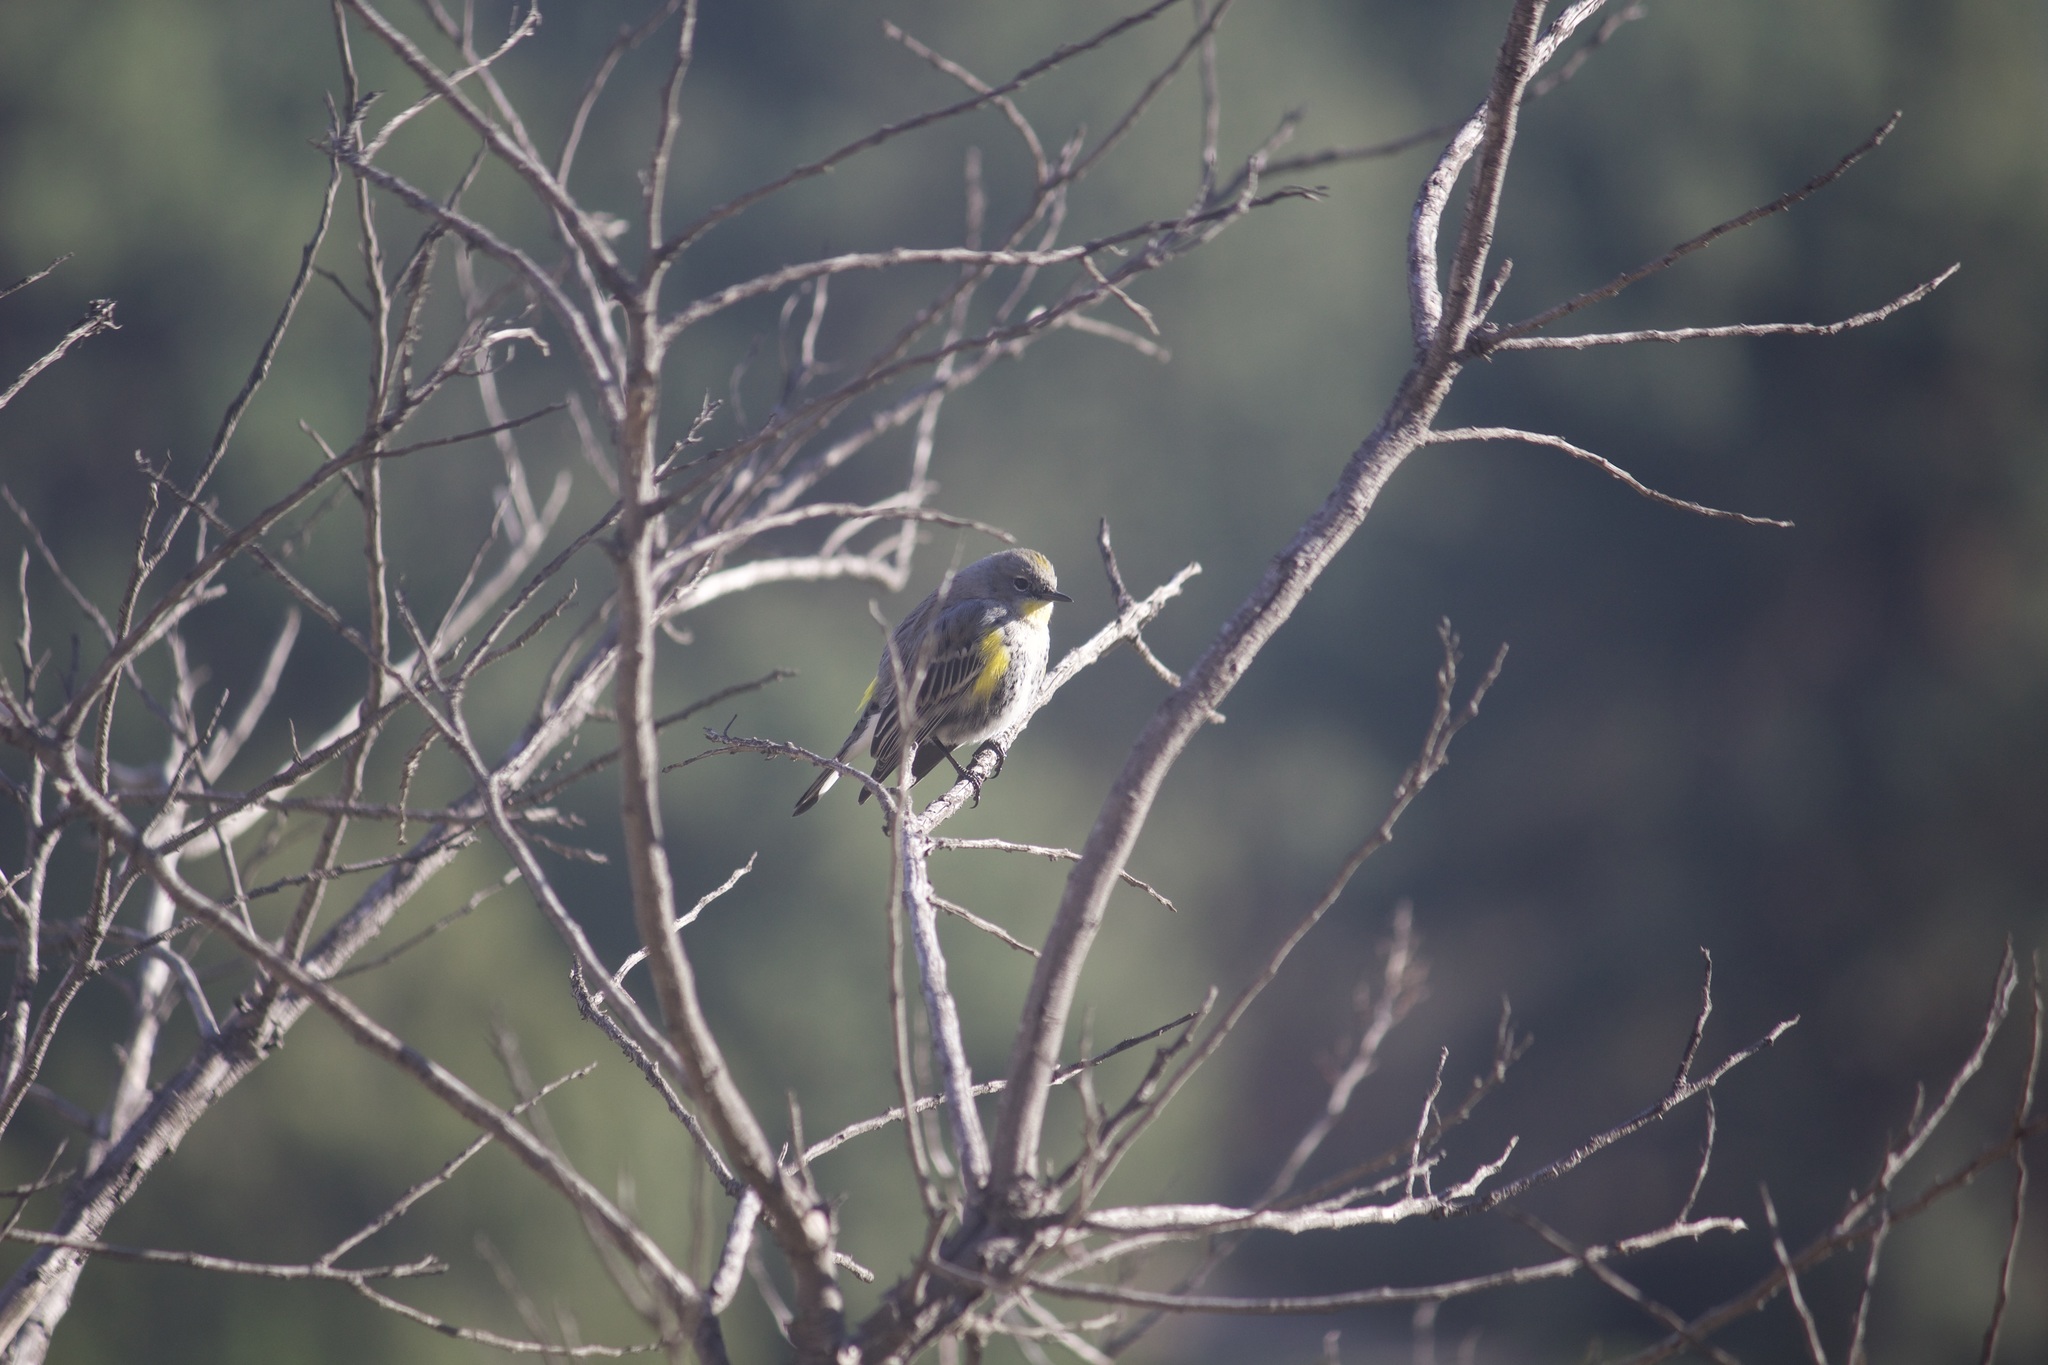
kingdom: Animalia
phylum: Chordata
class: Aves
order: Passeriformes
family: Parulidae
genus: Setophaga
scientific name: Setophaga coronata
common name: Myrtle warbler
